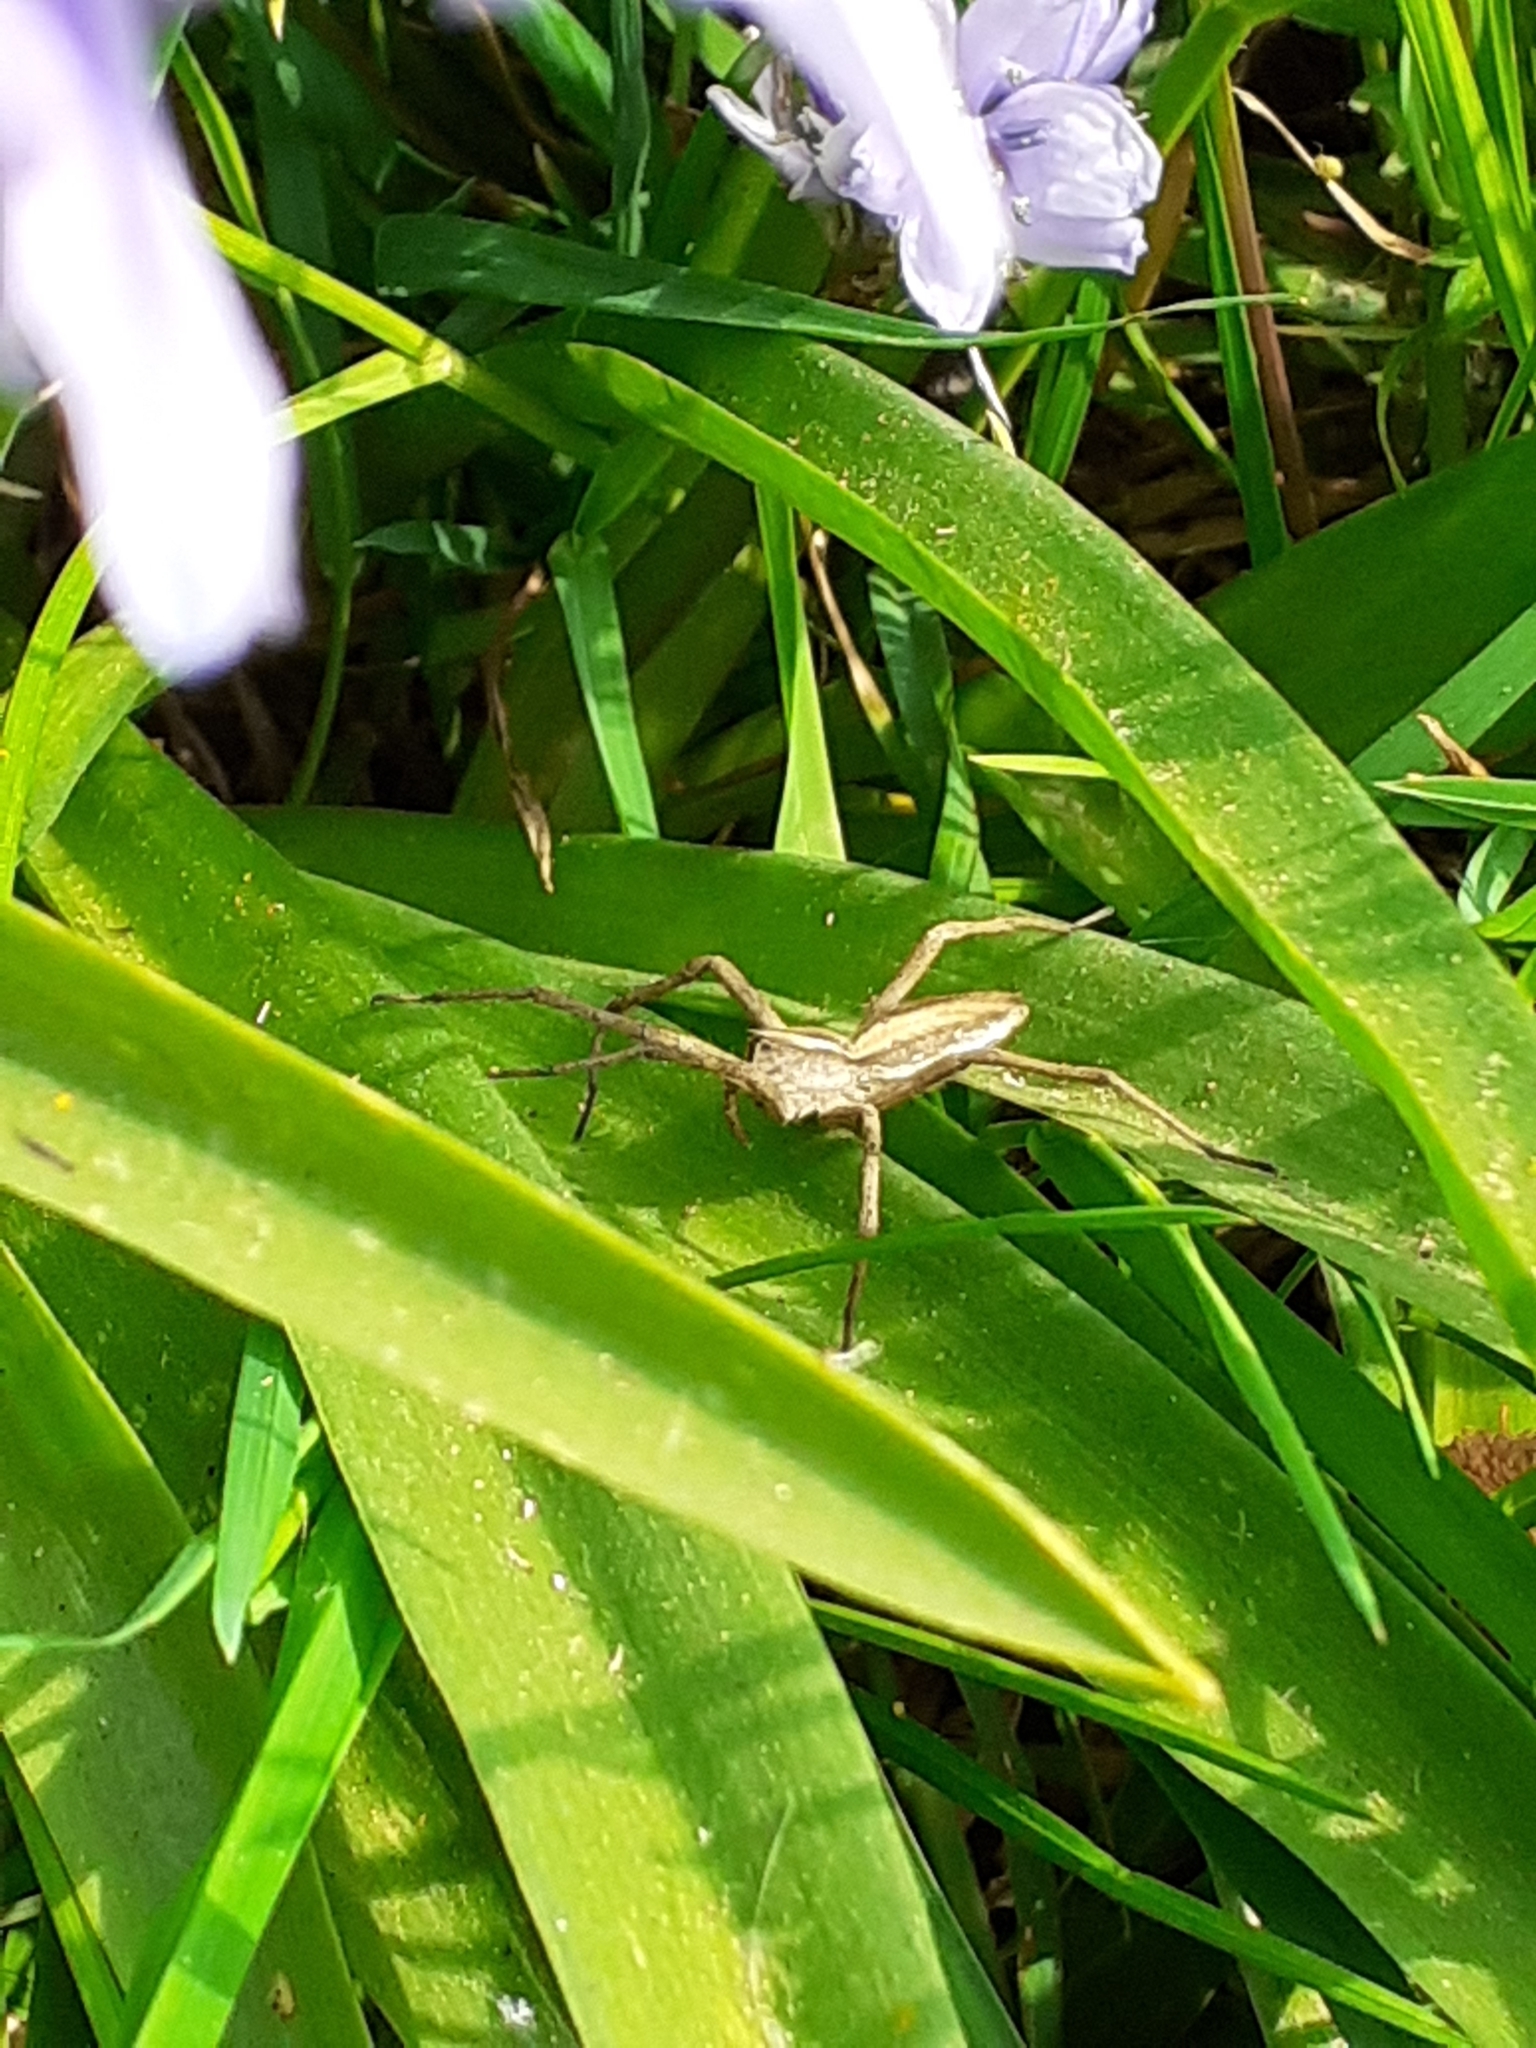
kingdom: Animalia
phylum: Arthropoda
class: Arachnida
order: Araneae
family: Pisauridae
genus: Pisaura
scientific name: Pisaura mirabilis
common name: Tent spider
